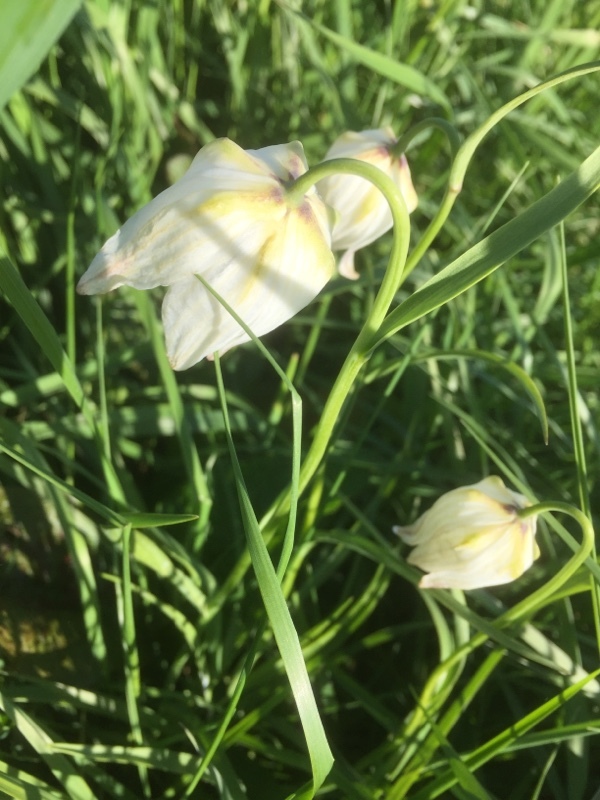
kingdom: Plantae
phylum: Tracheophyta
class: Liliopsida
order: Liliales
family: Liliaceae
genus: Fritillaria
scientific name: Fritillaria meleagris
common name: Fritillary
